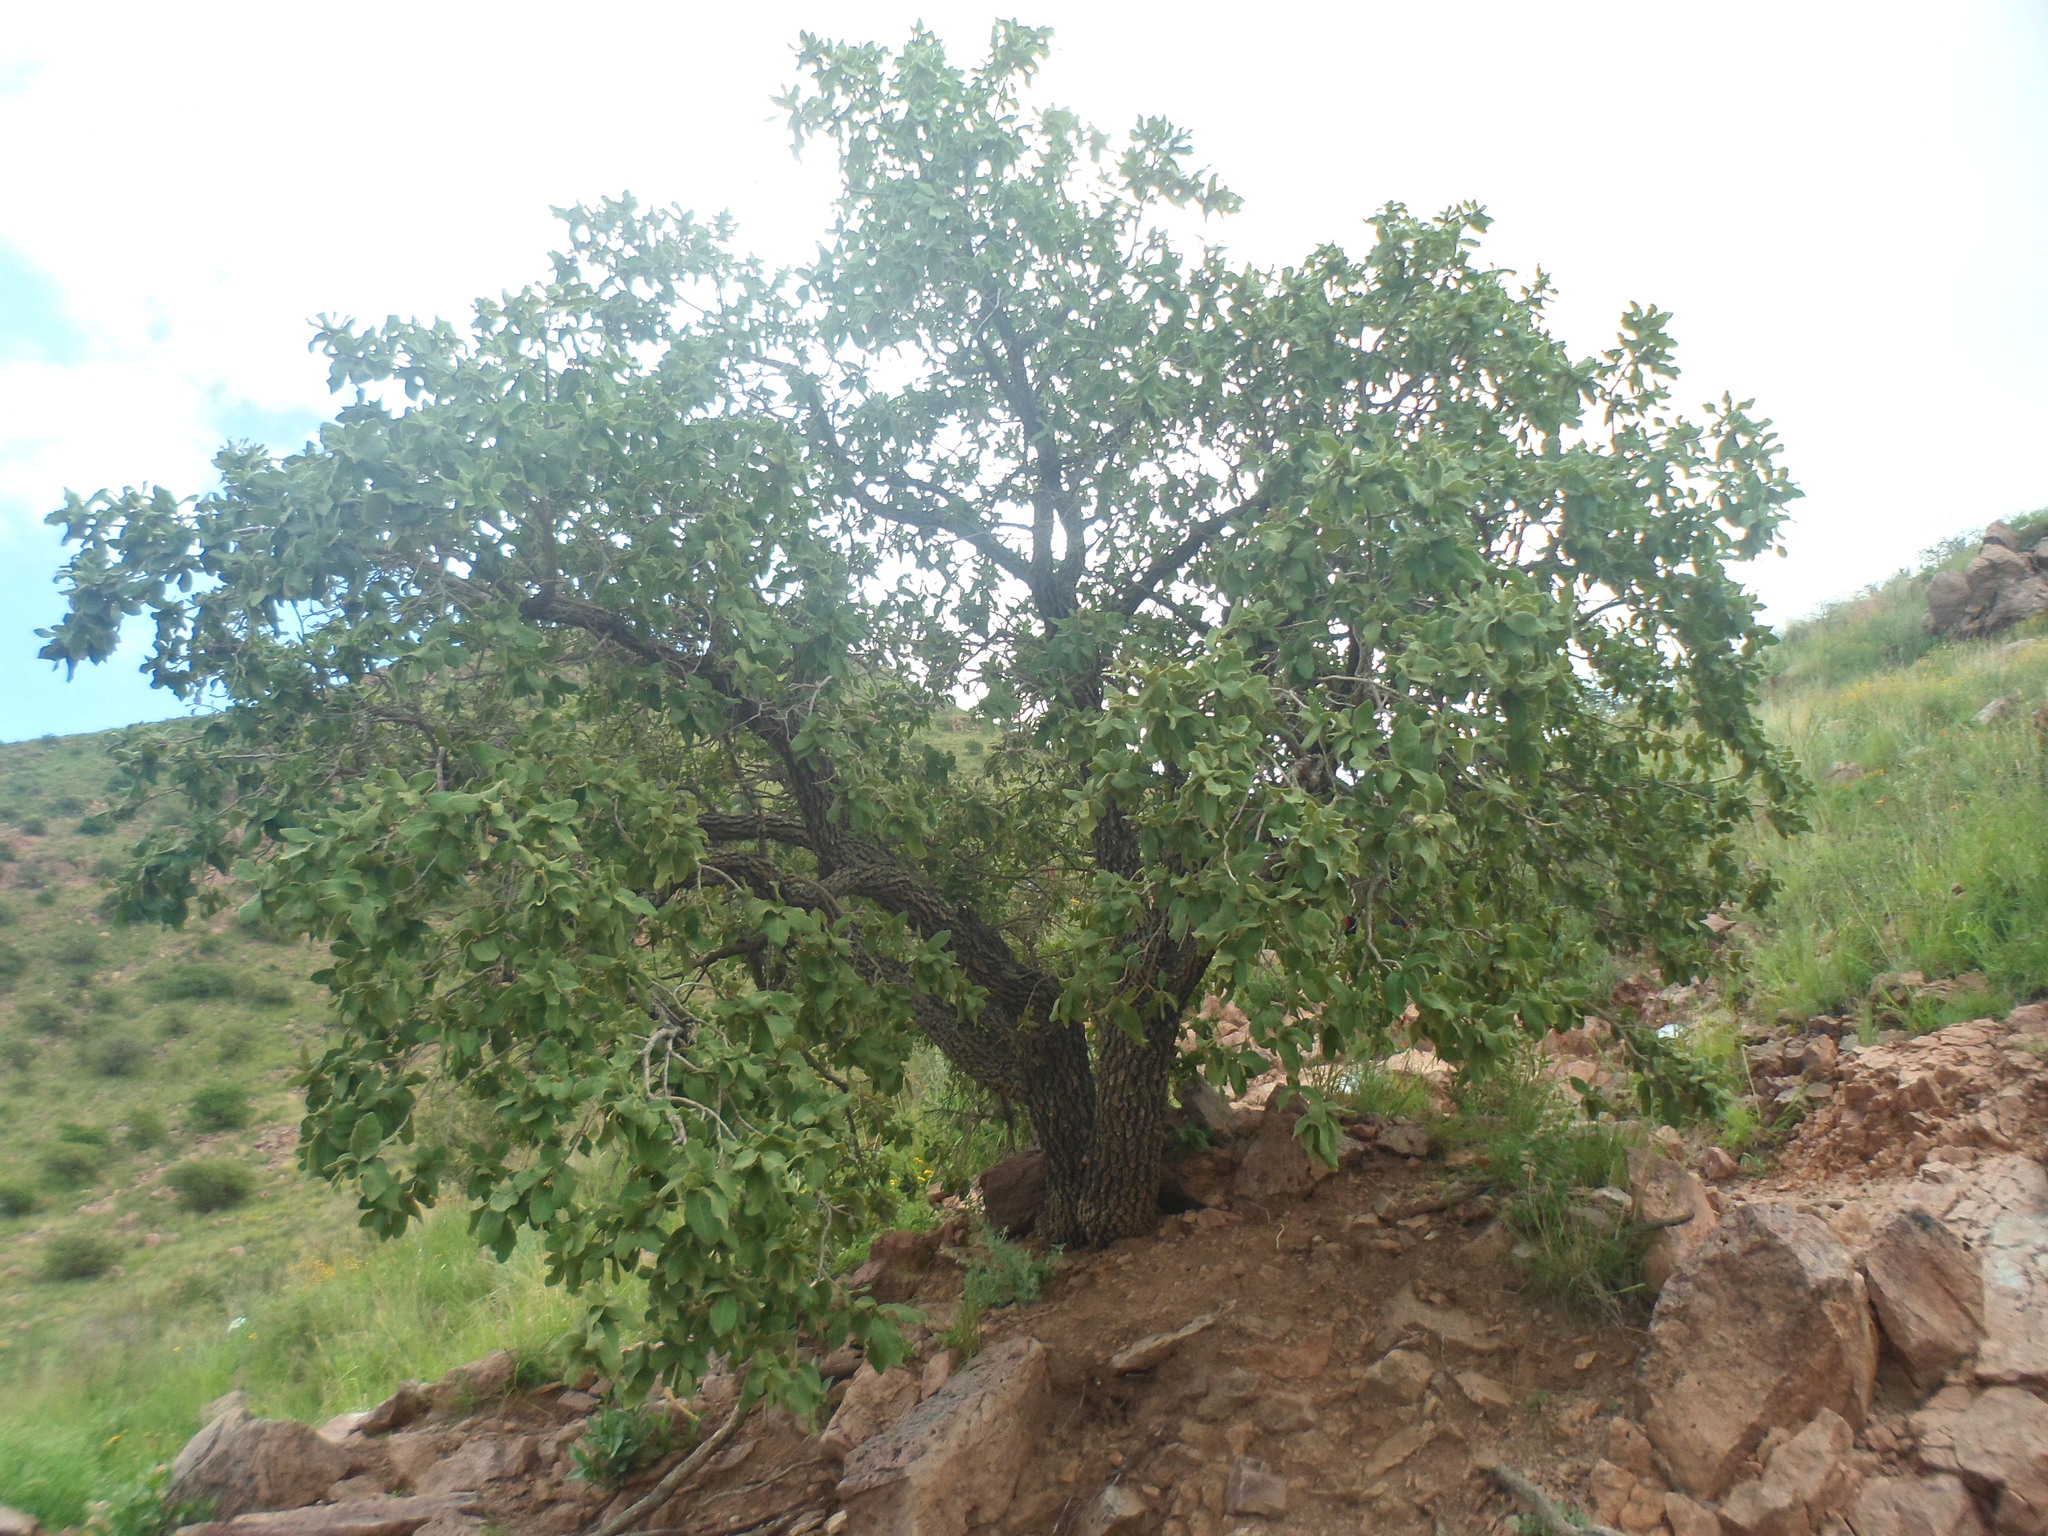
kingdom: Plantae
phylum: Tracheophyta
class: Magnoliopsida
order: Fagales
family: Fagaceae
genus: Quercus
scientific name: Quercus chihuahuensis
